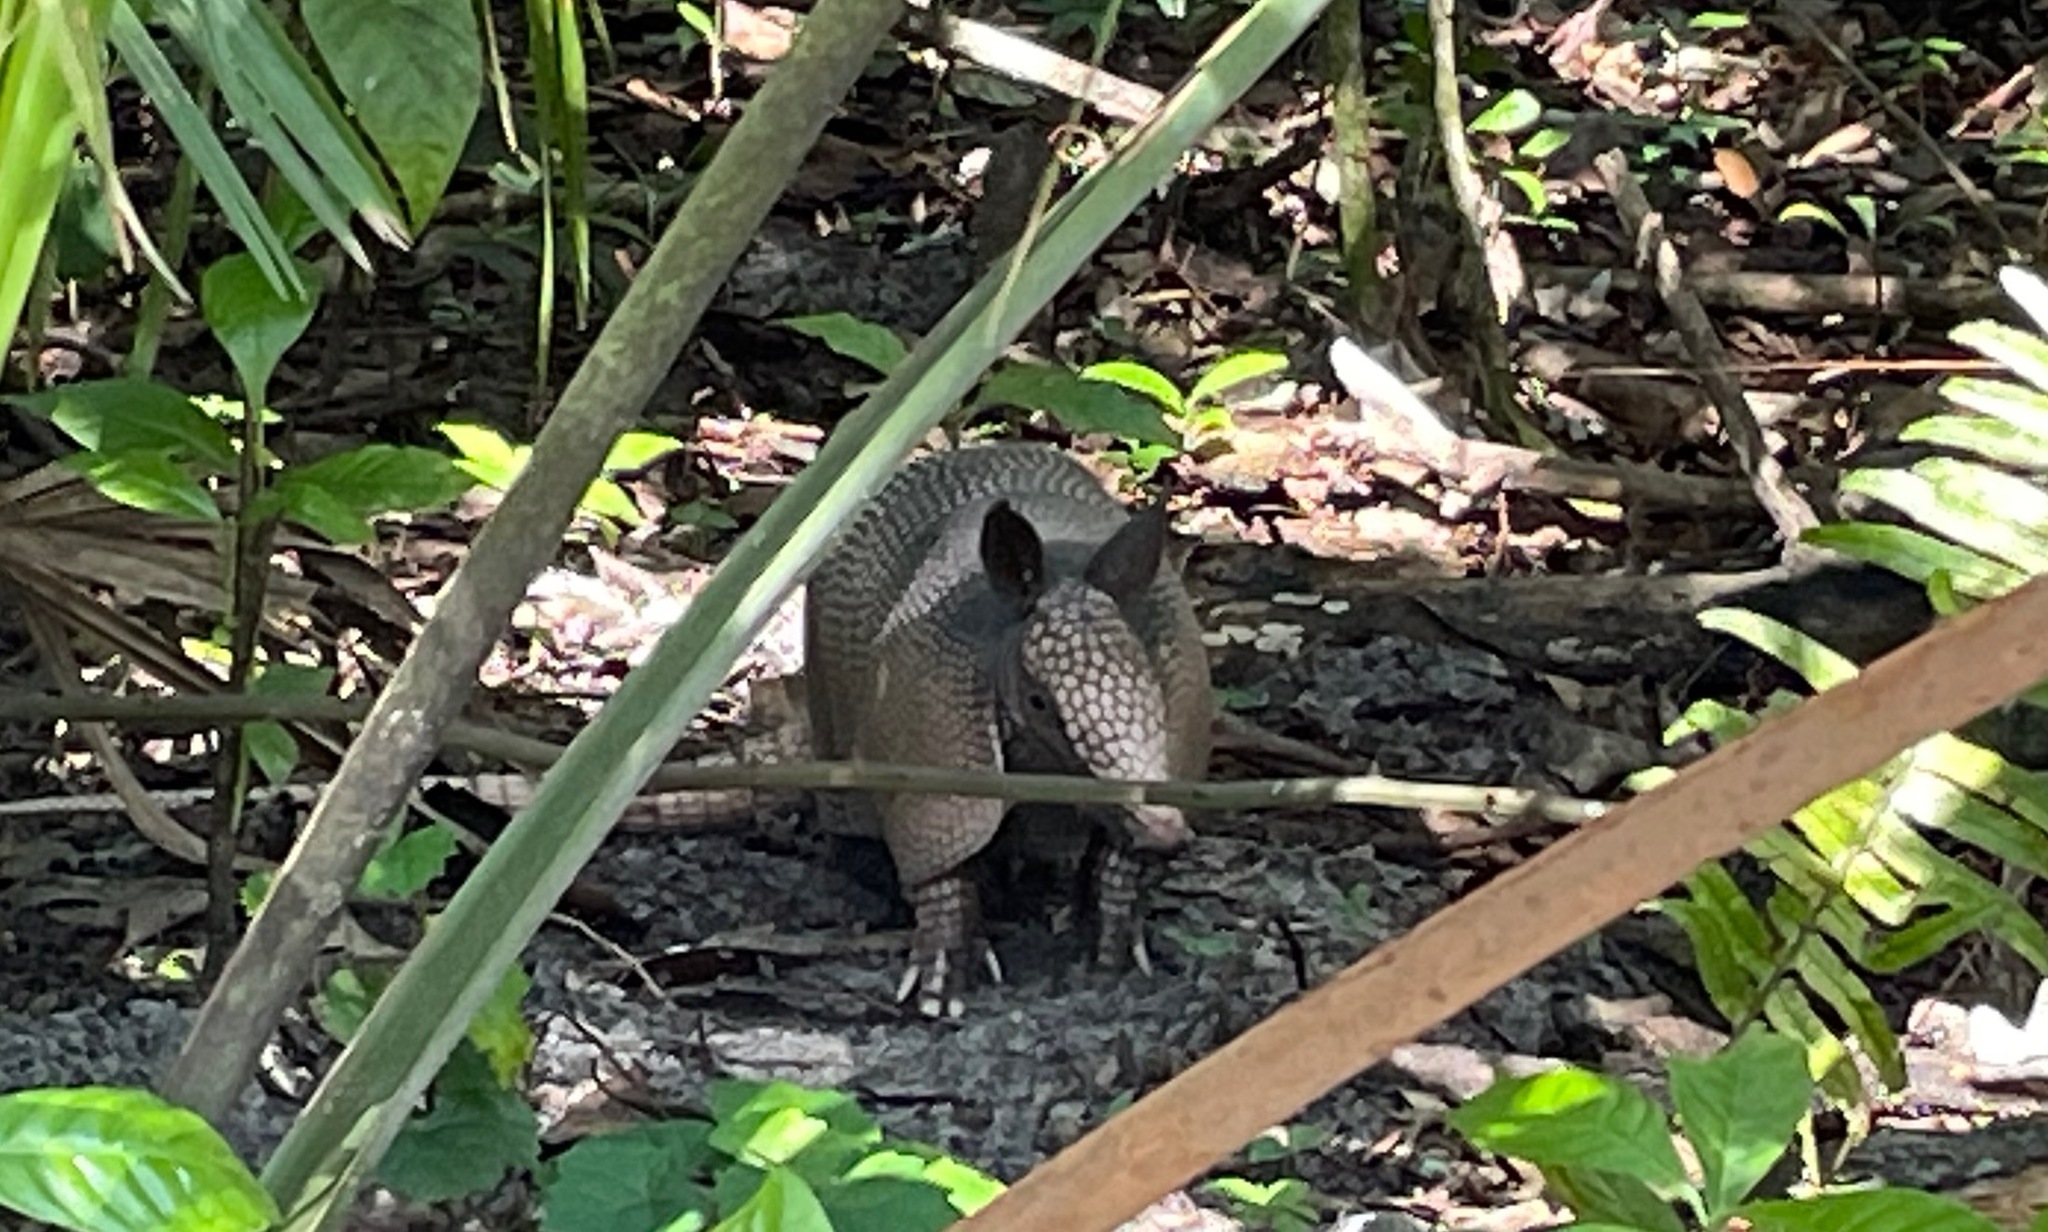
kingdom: Animalia
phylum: Chordata
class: Mammalia
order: Cingulata
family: Dasypodidae
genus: Dasypus
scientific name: Dasypus novemcinctus
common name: Nine-banded armadillo
